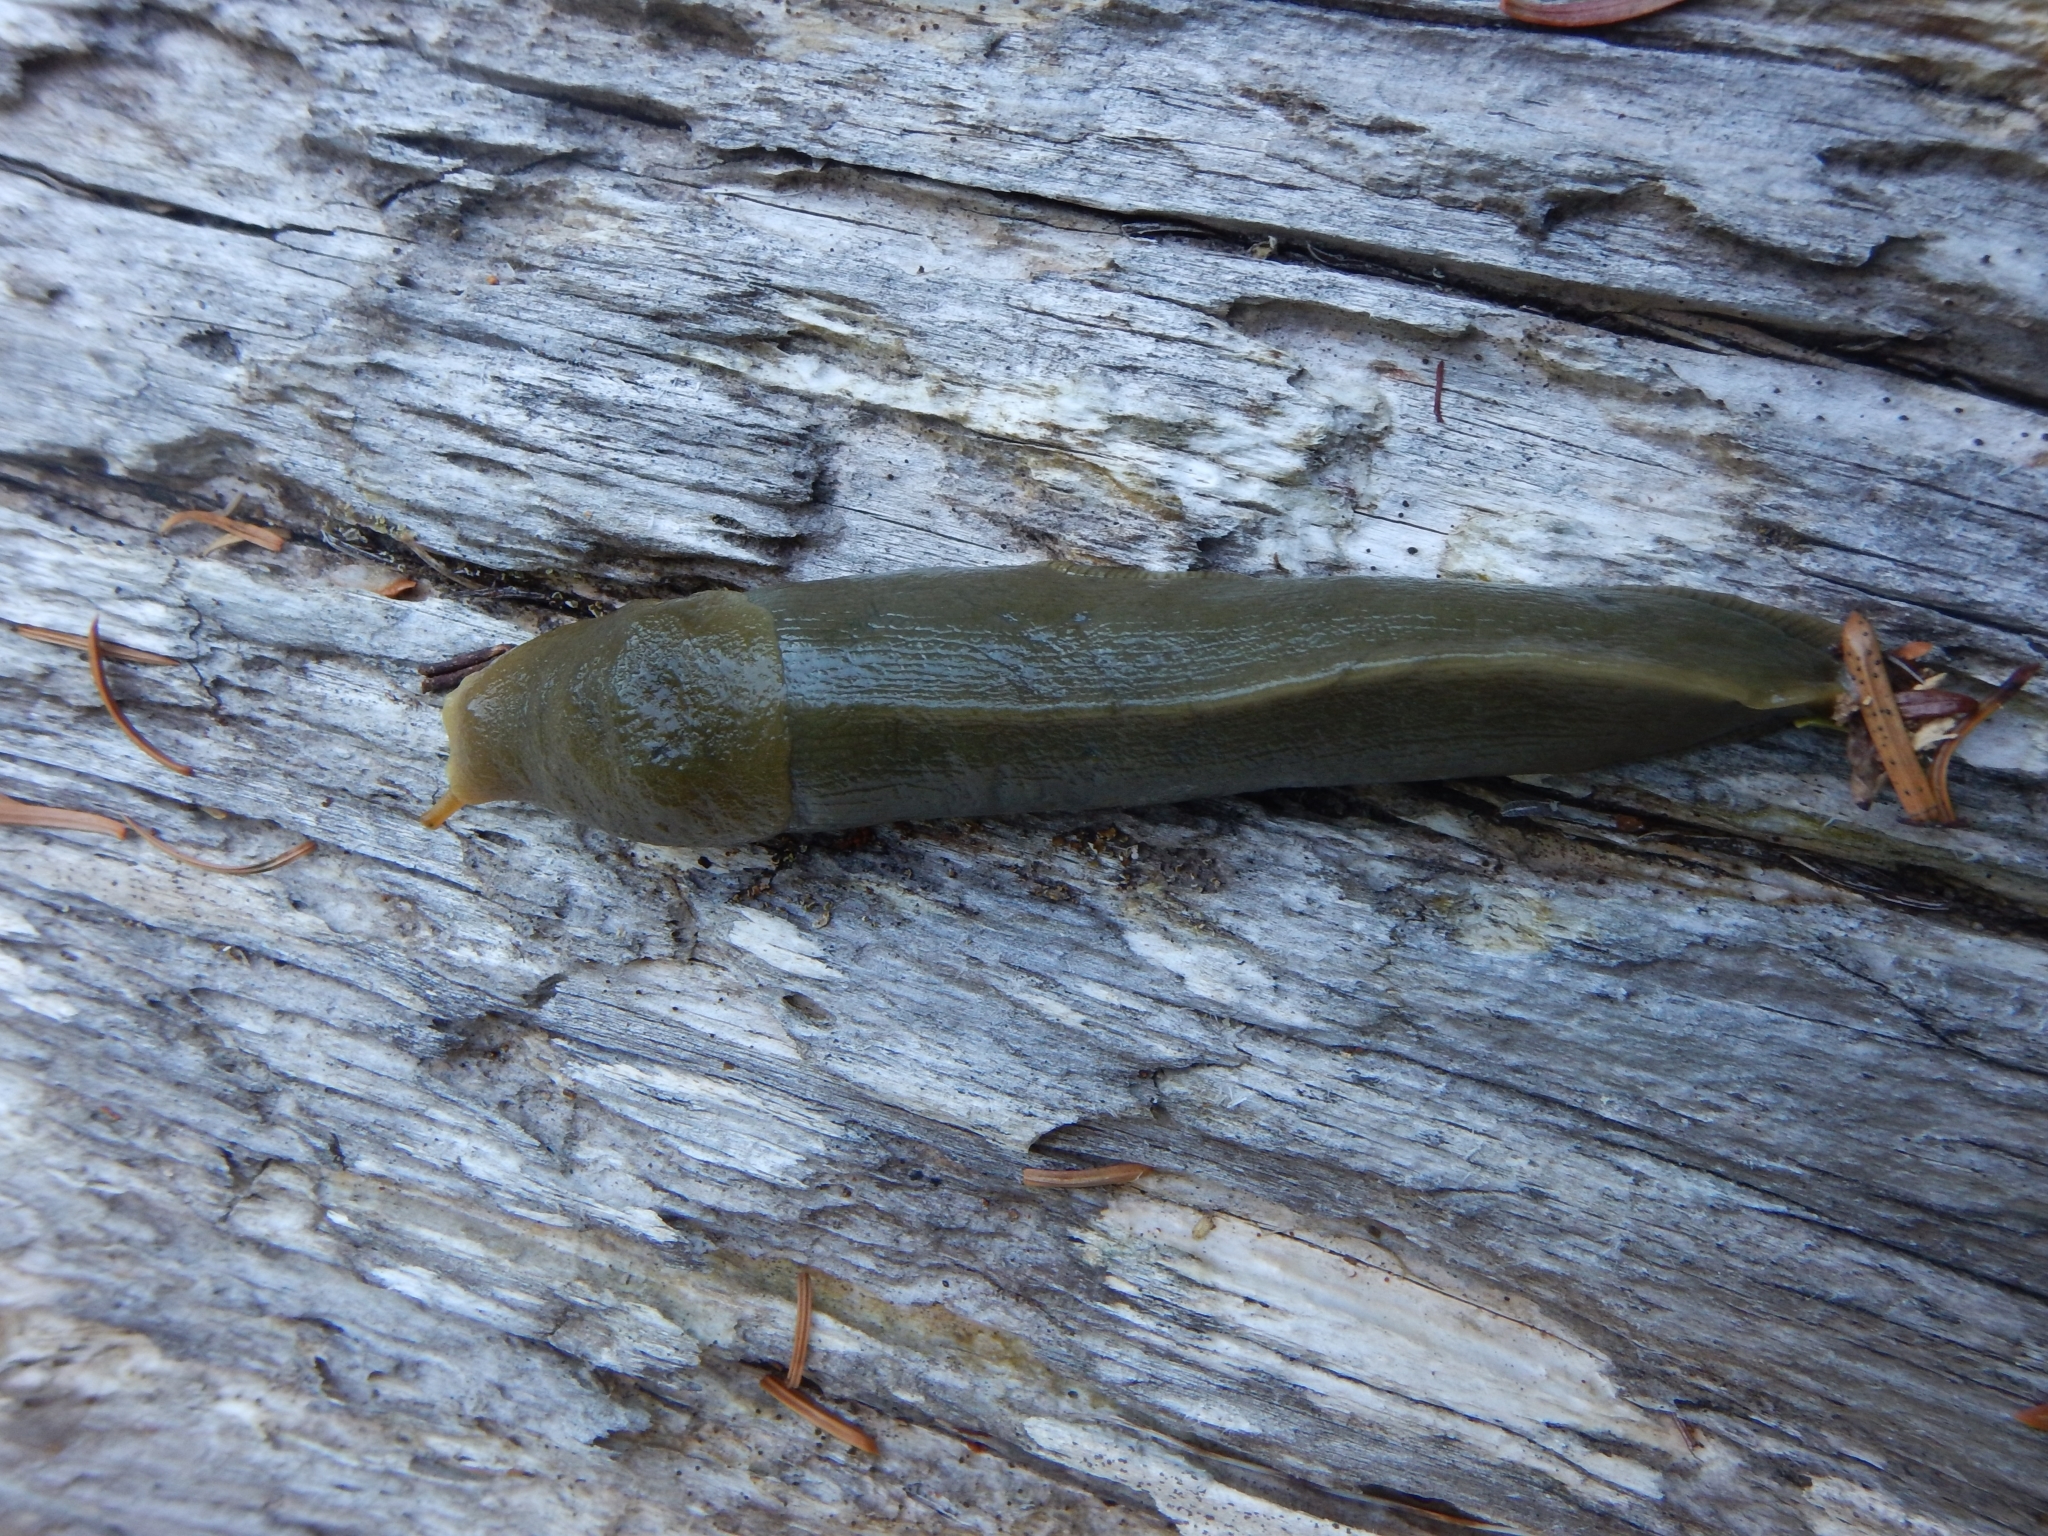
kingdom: Animalia
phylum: Mollusca
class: Gastropoda
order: Stylommatophora
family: Ariolimacidae
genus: Ariolimax
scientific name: Ariolimax columbianus
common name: Pacific banana slug
